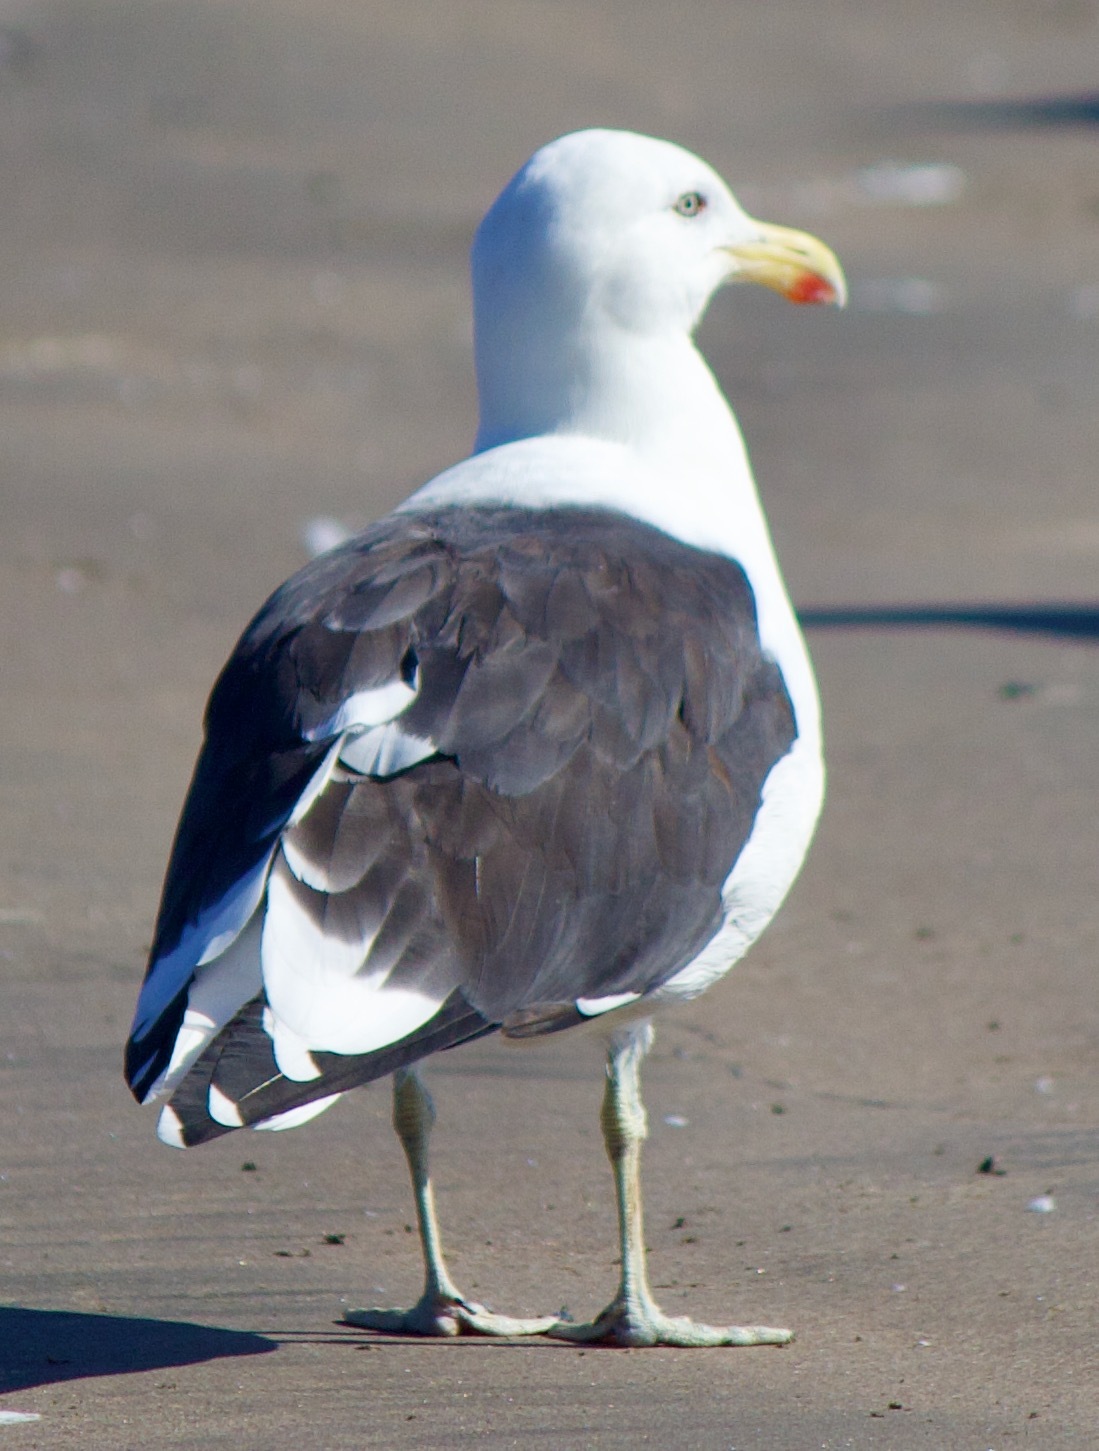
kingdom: Animalia
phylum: Chordata
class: Aves
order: Charadriiformes
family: Laridae
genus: Larus
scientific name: Larus dominicanus
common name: Kelp gull
